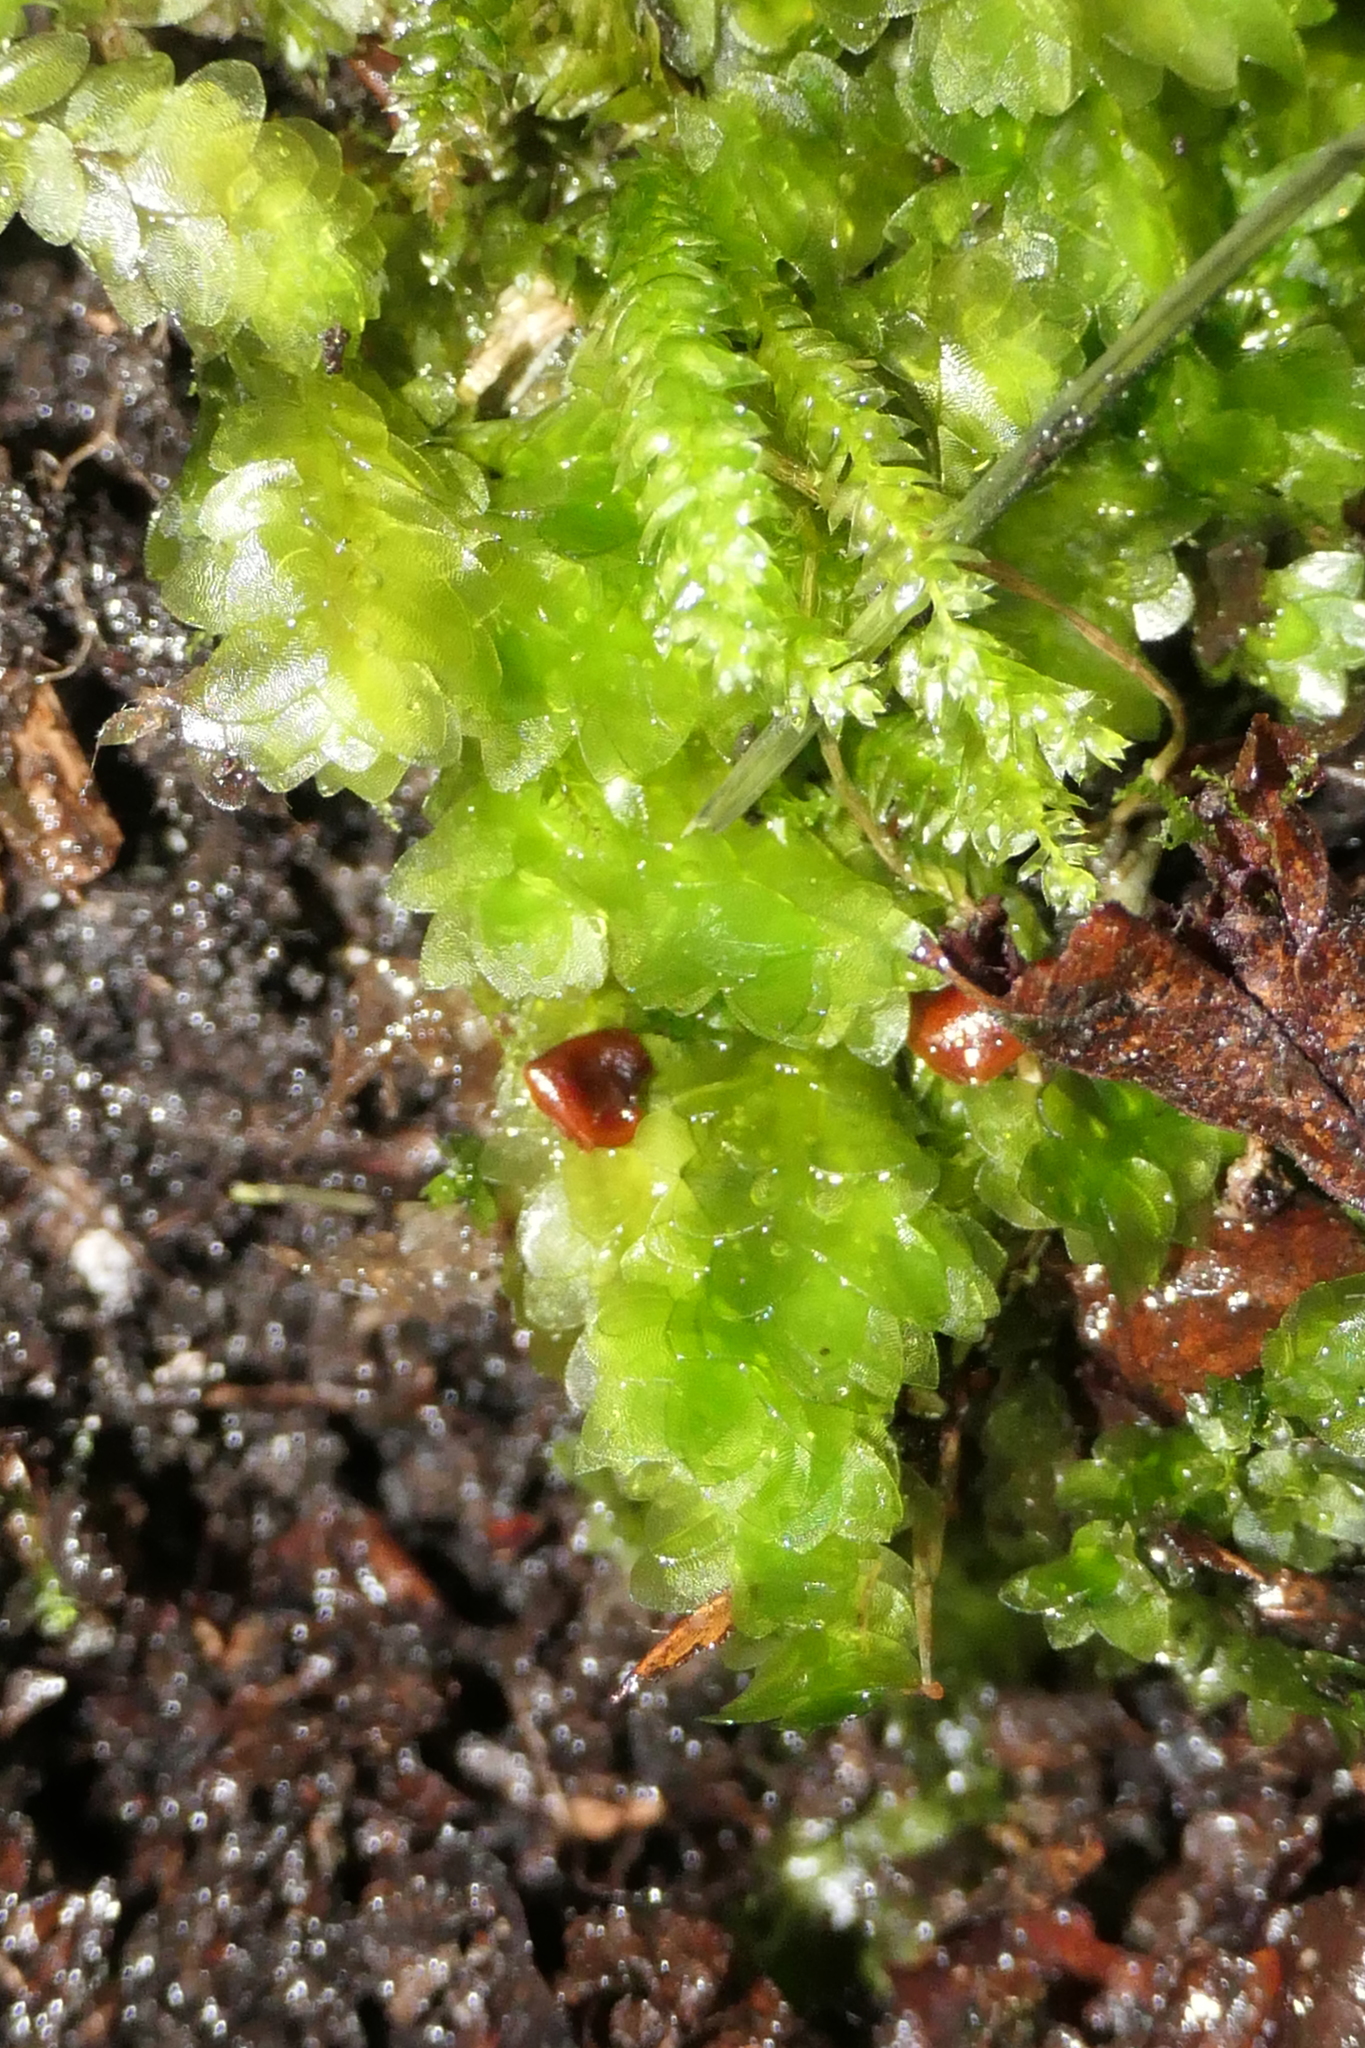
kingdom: Plantae
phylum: Bryophyta
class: Bryopsida
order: Hookeriales
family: Hookeriaceae
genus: Hookeria
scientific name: Hookeria lucens
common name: Shining hookeria
